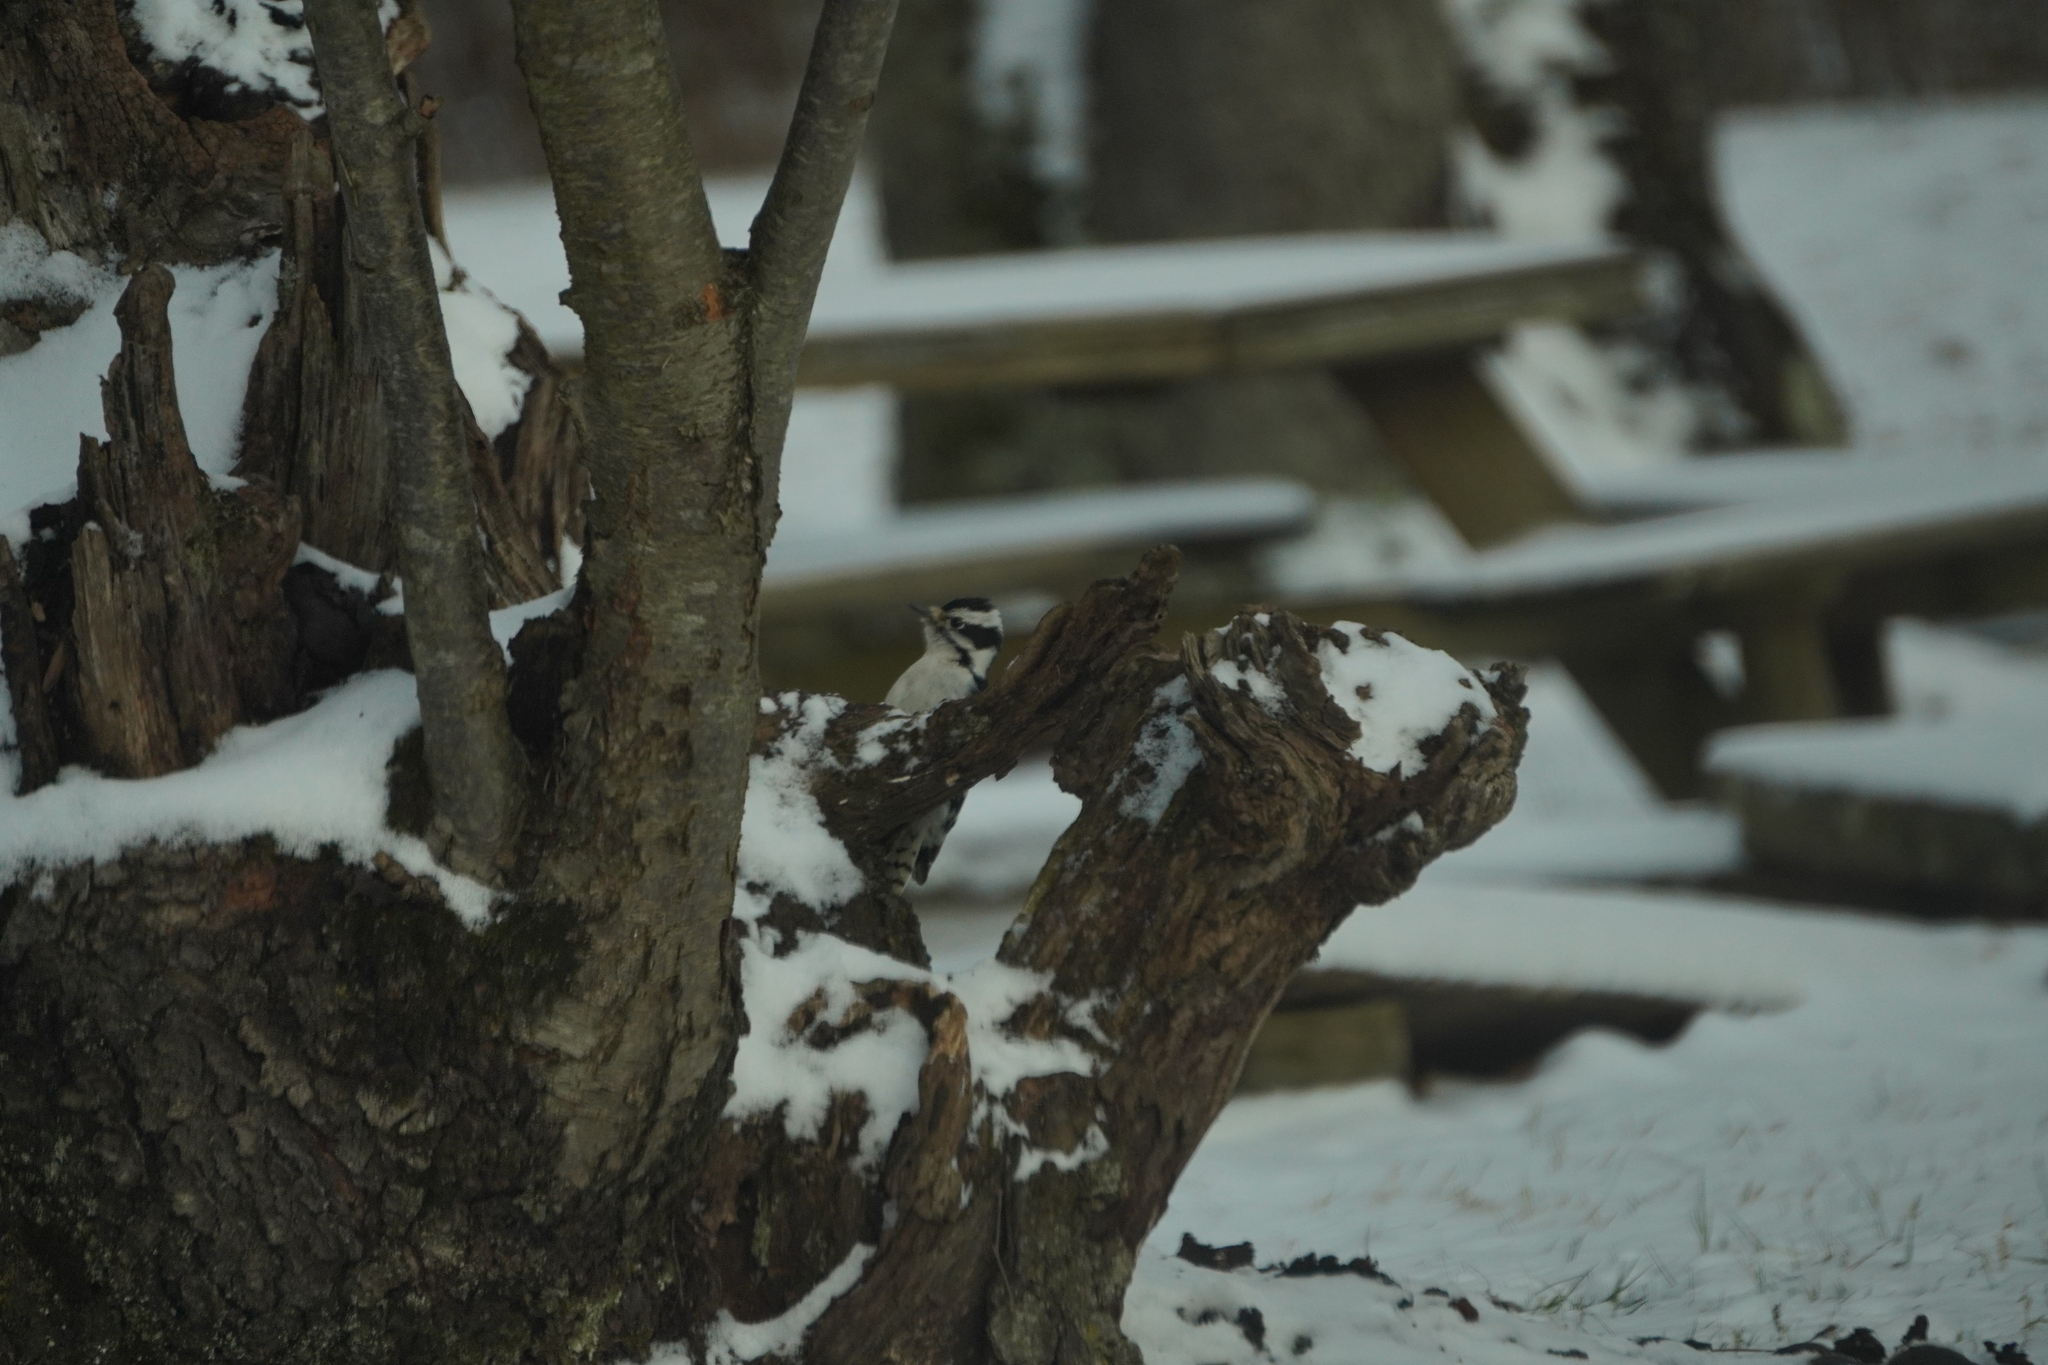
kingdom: Animalia
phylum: Chordata
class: Aves
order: Piciformes
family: Picidae
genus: Dryobates
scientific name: Dryobates pubescens
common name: Downy woodpecker
